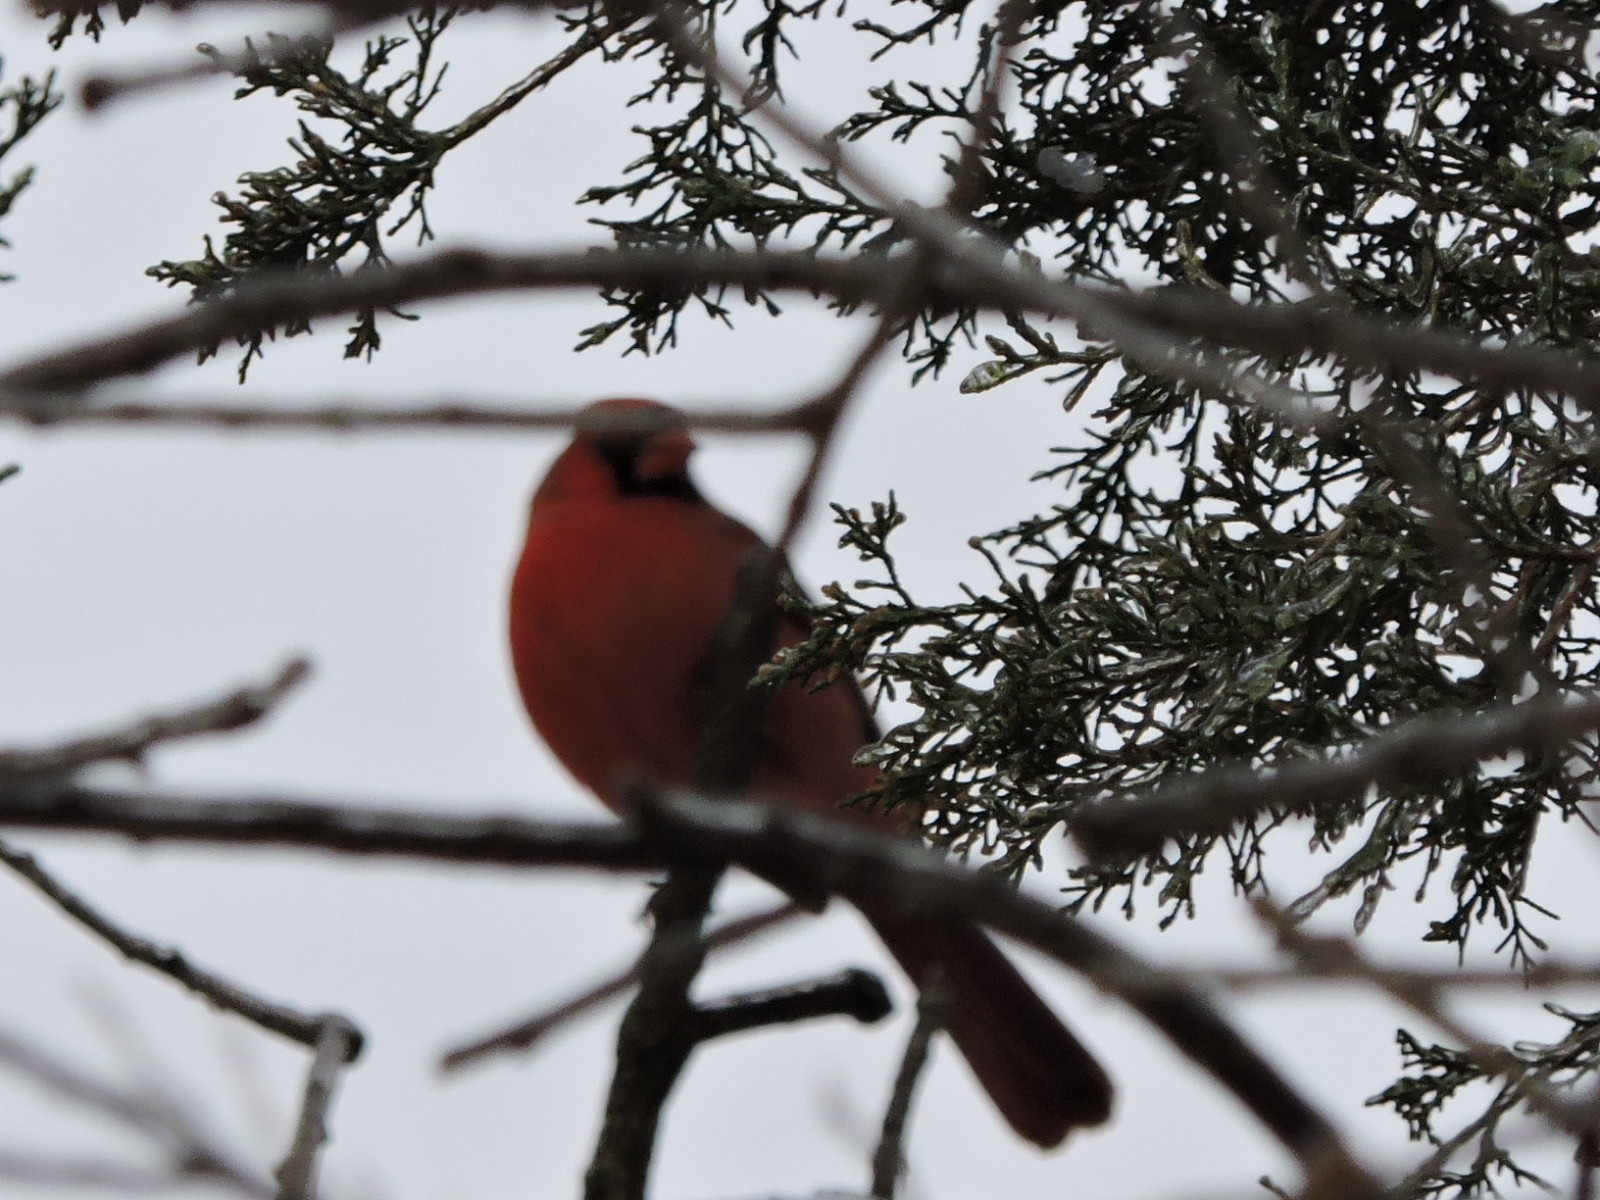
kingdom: Animalia
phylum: Chordata
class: Aves
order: Passeriformes
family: Cardinalidae
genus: Cardinalis
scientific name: Cardinalis cardinalis
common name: Northern cardinal
